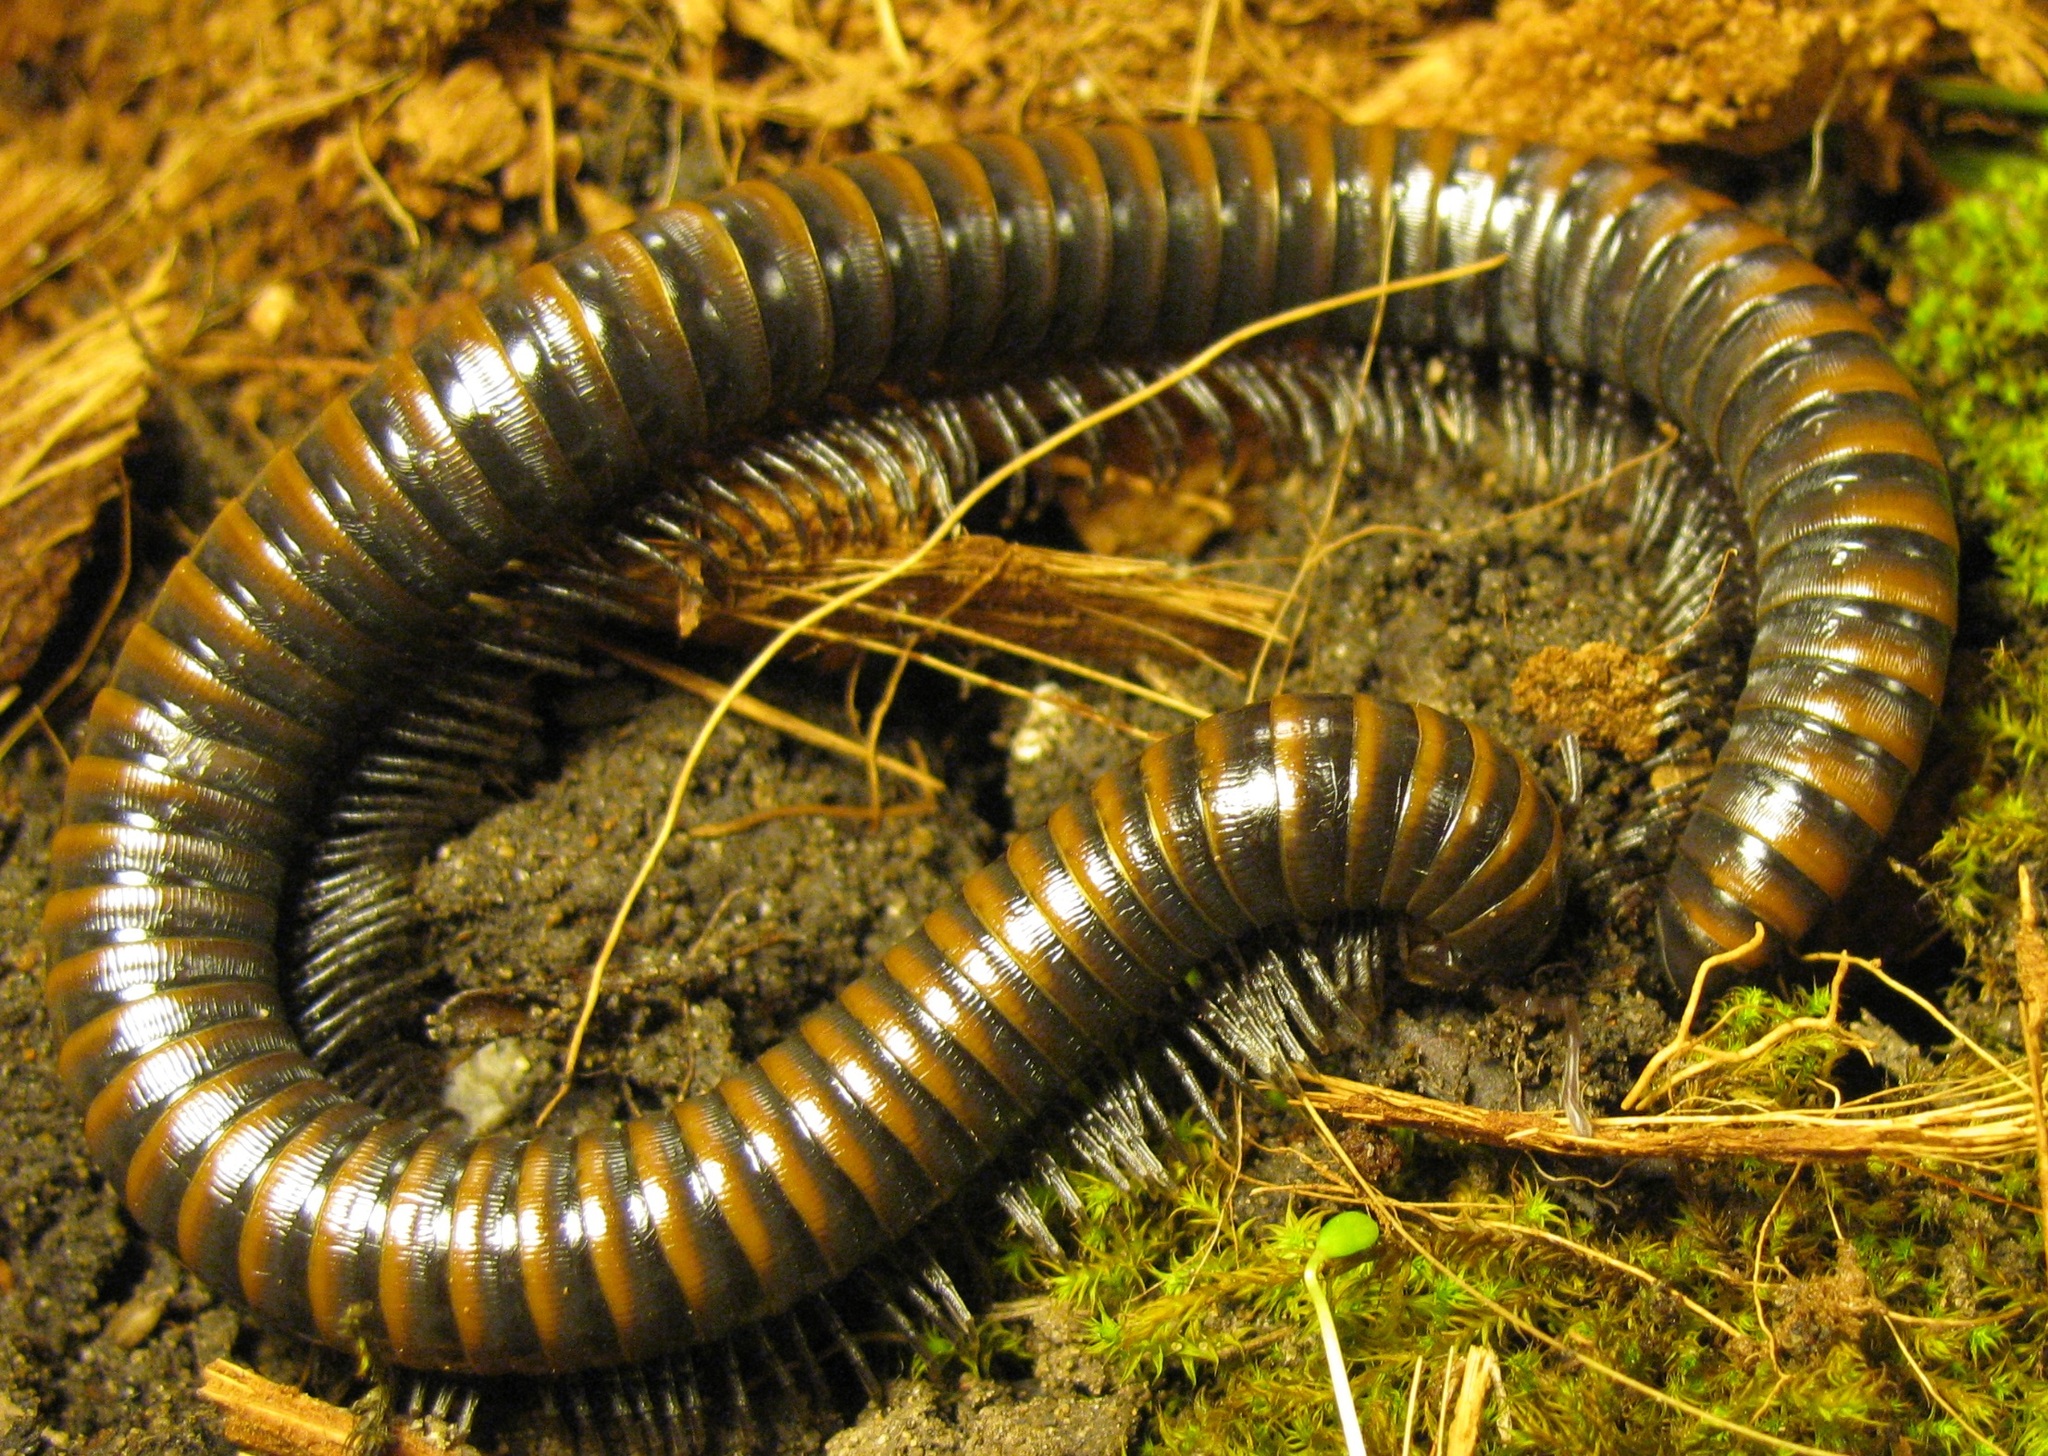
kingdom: Animalia
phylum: Arthropoda
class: Diplopoda
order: Julida
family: Paeromopodidae
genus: Paeromopus
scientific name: Paeromopus angusticeps
